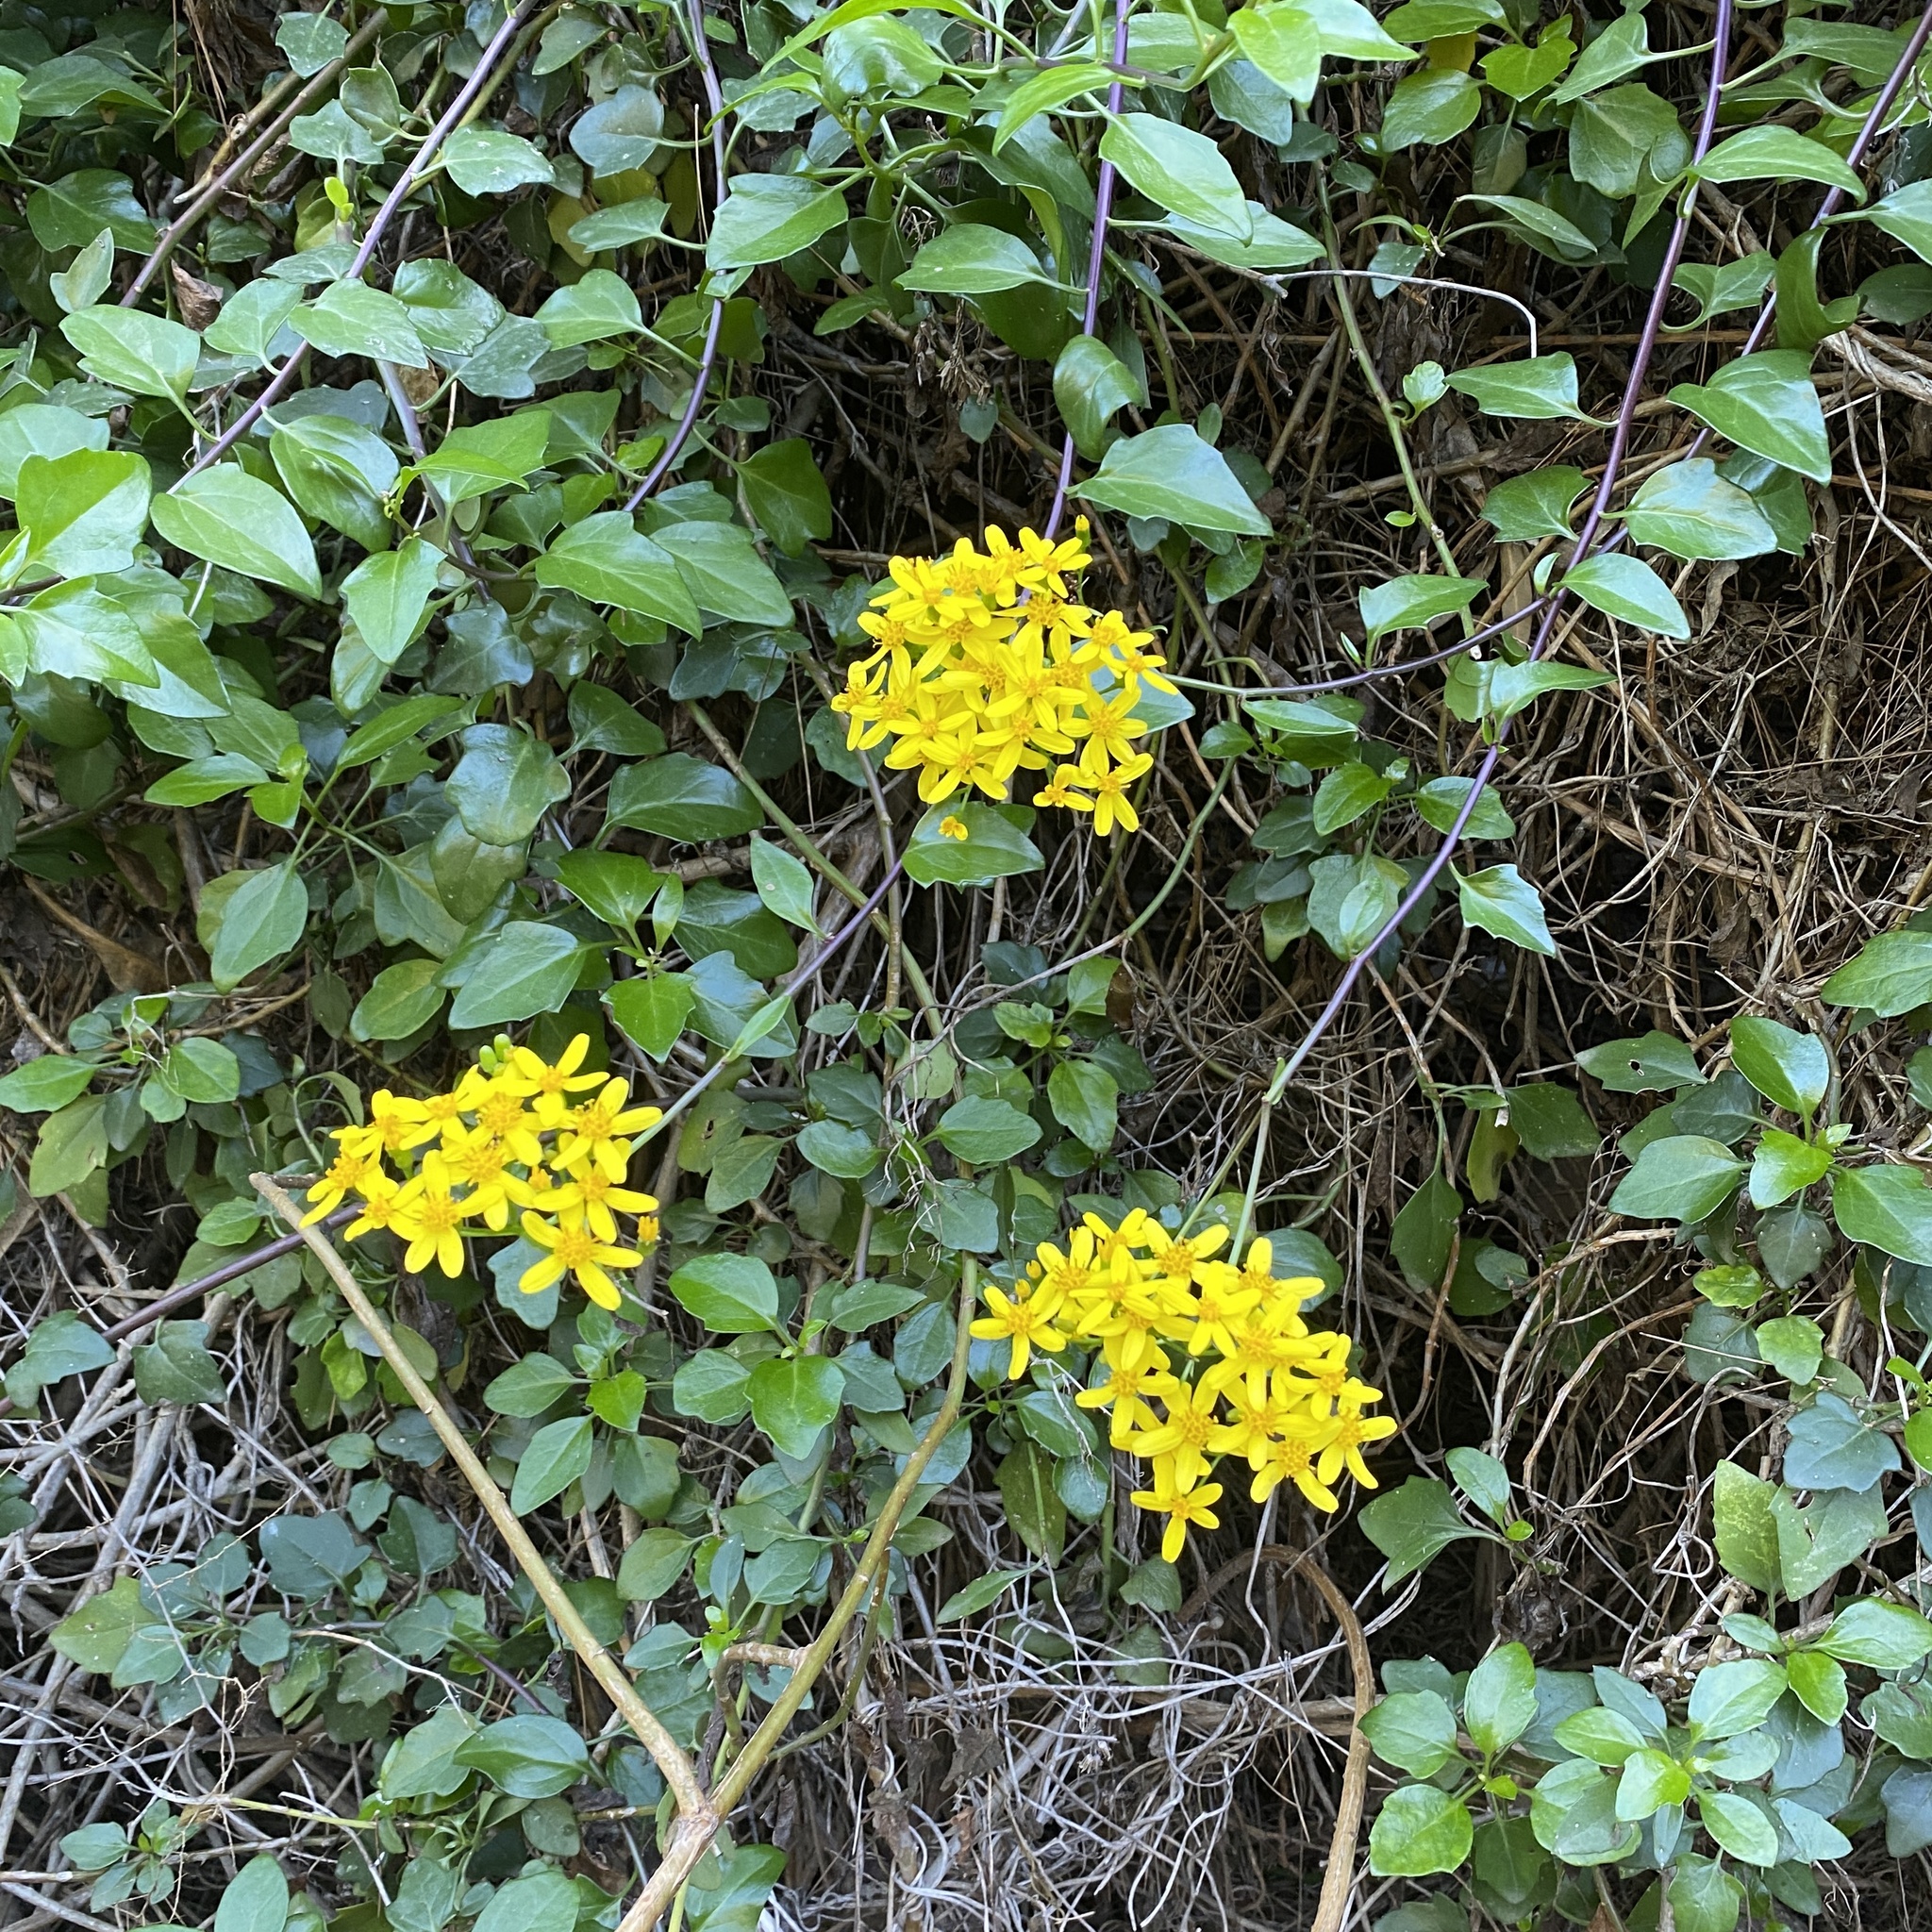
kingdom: Plantae
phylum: Tracheophyta
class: Magnoliopsida
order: Asterales
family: Asteraceae
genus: Senecio
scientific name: Senecio angulatus
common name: Climbing groundsel
